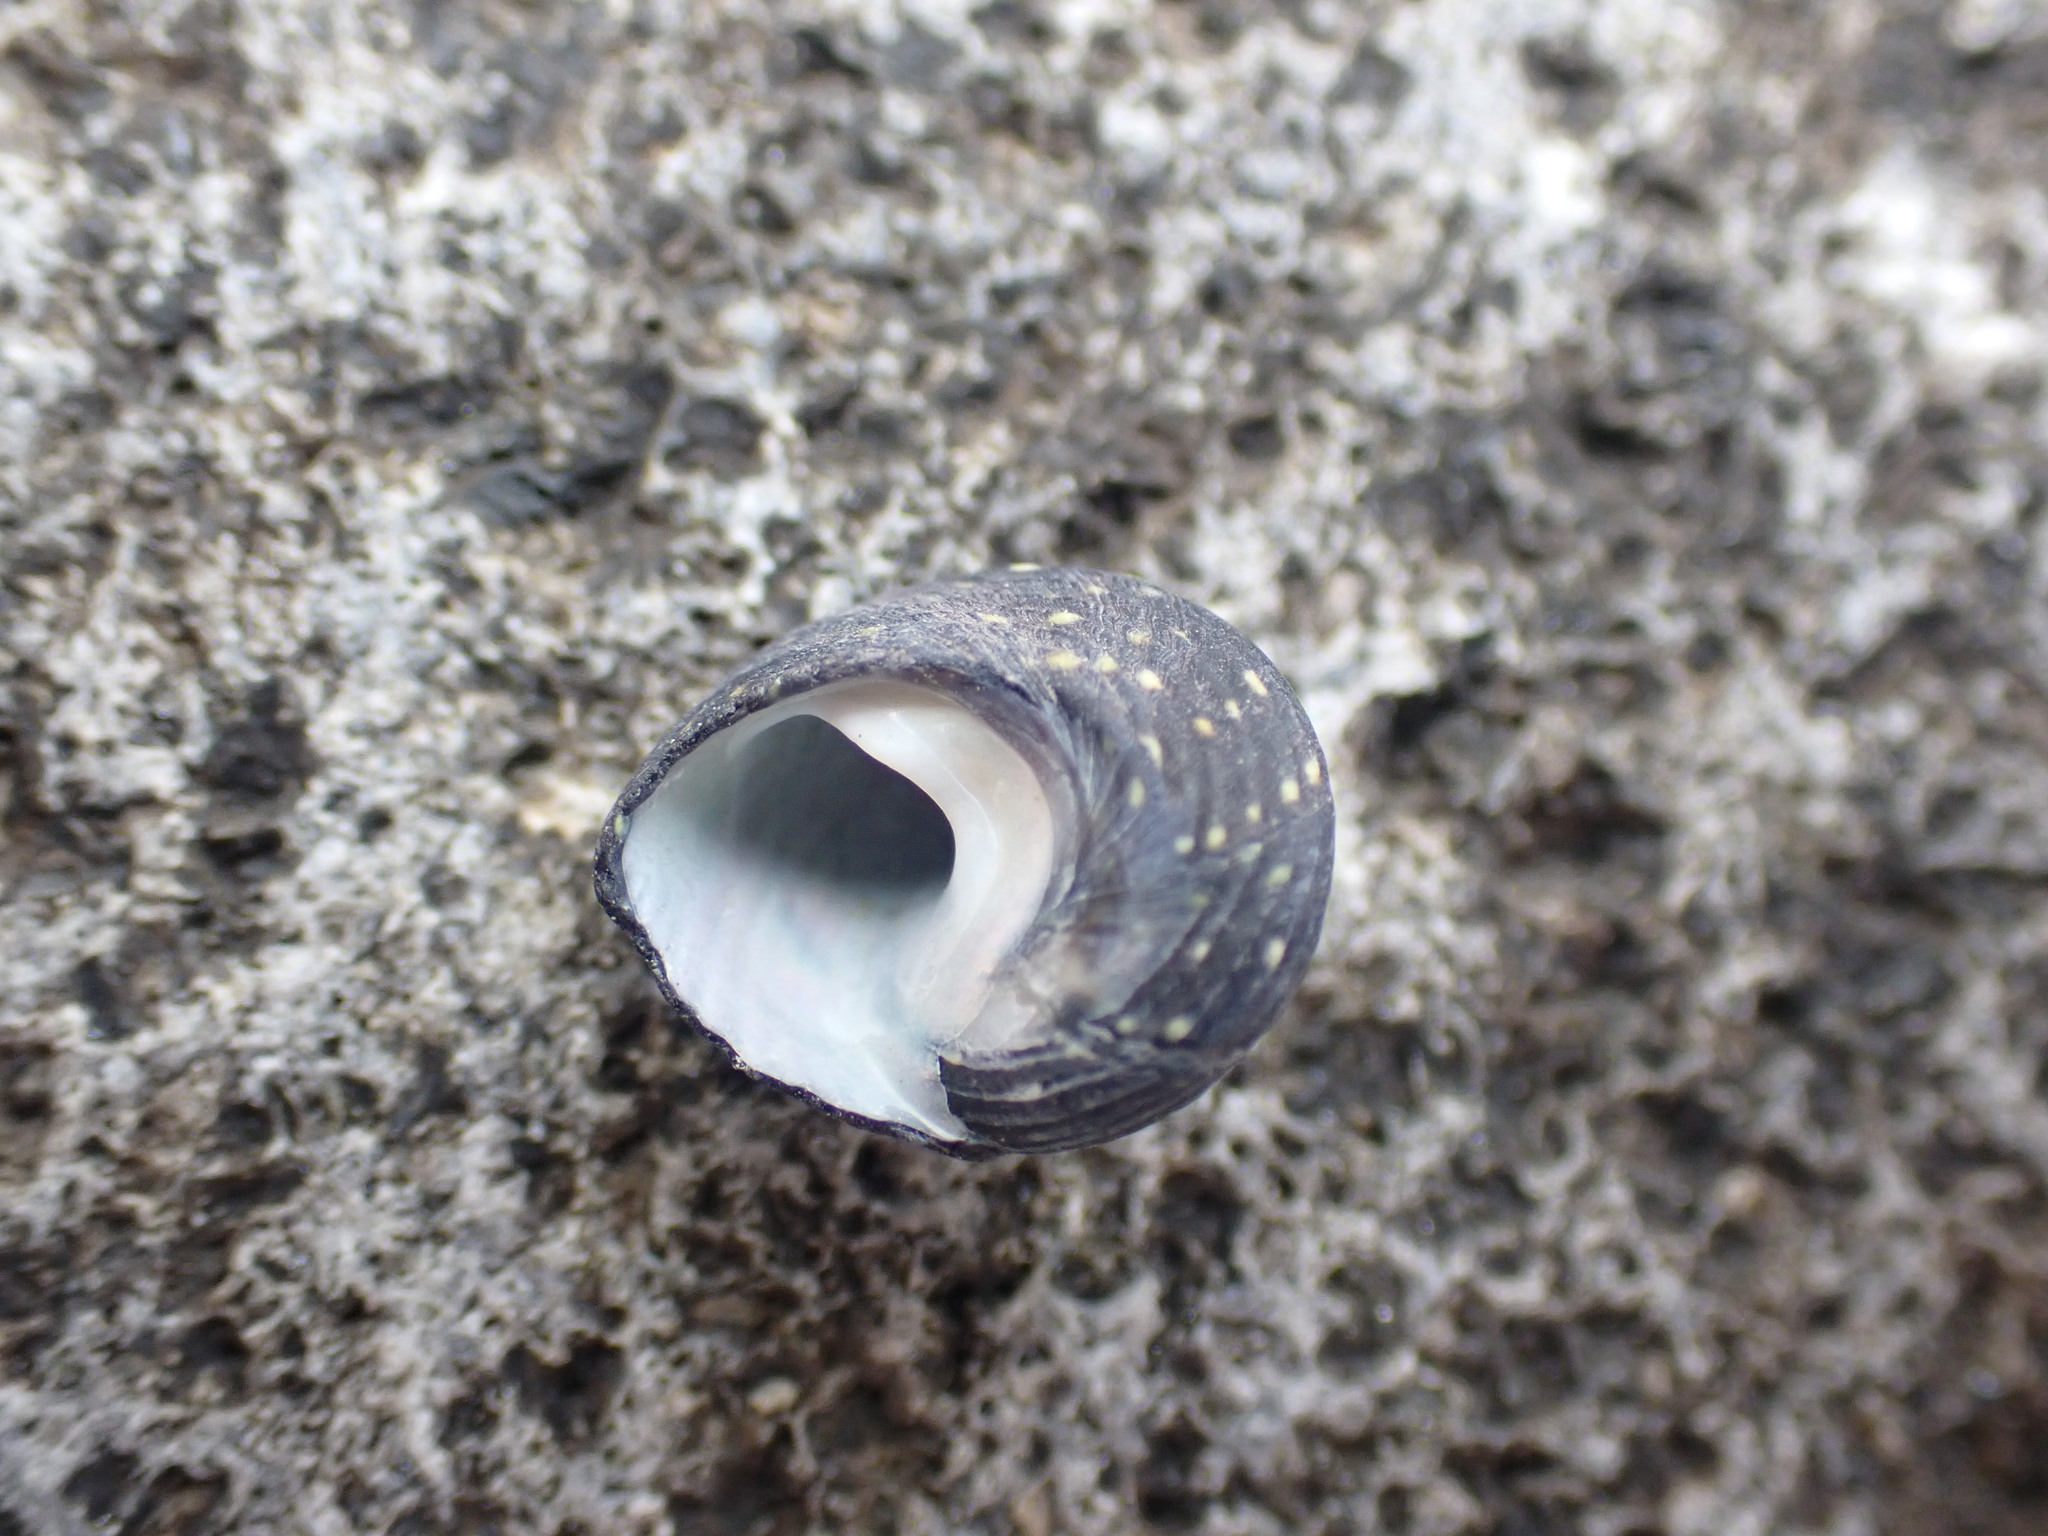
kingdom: Animalia
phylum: Mollusca
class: Gastropoda
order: Trochida
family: Trochidae
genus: Diloma
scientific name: Diloma aridum
